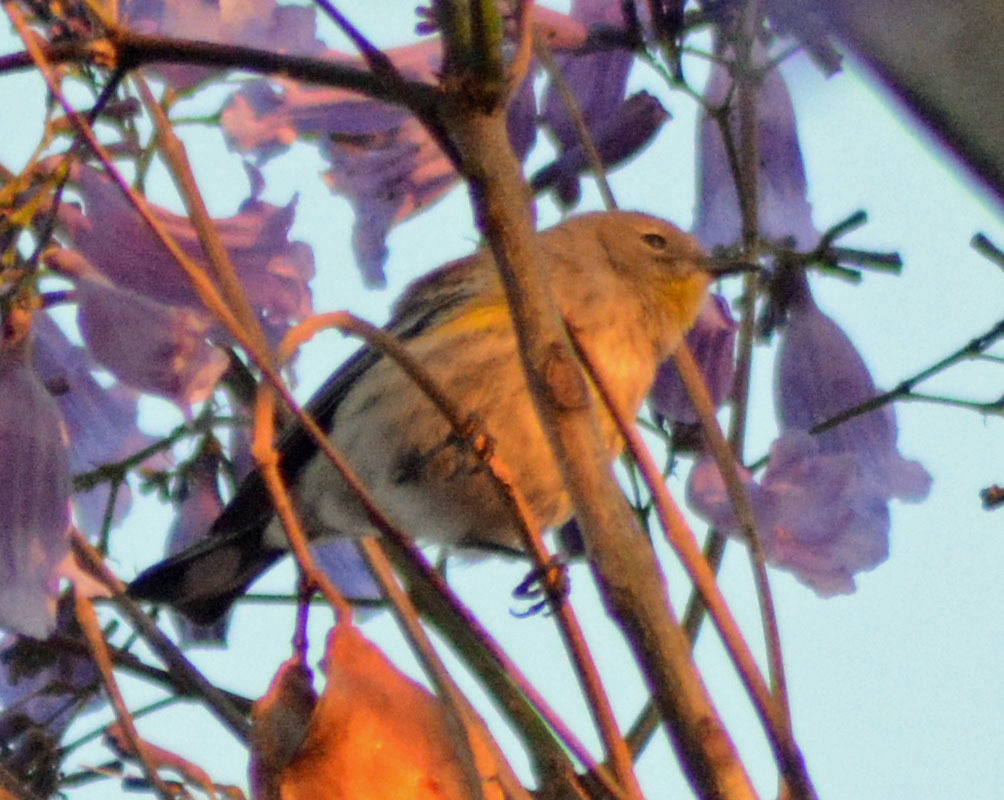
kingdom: Animalia
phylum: Chordata
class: Aves
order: Passeriformes
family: Parulidae
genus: Setophaga
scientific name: Setophaga coronata
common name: Myrtle warbler
